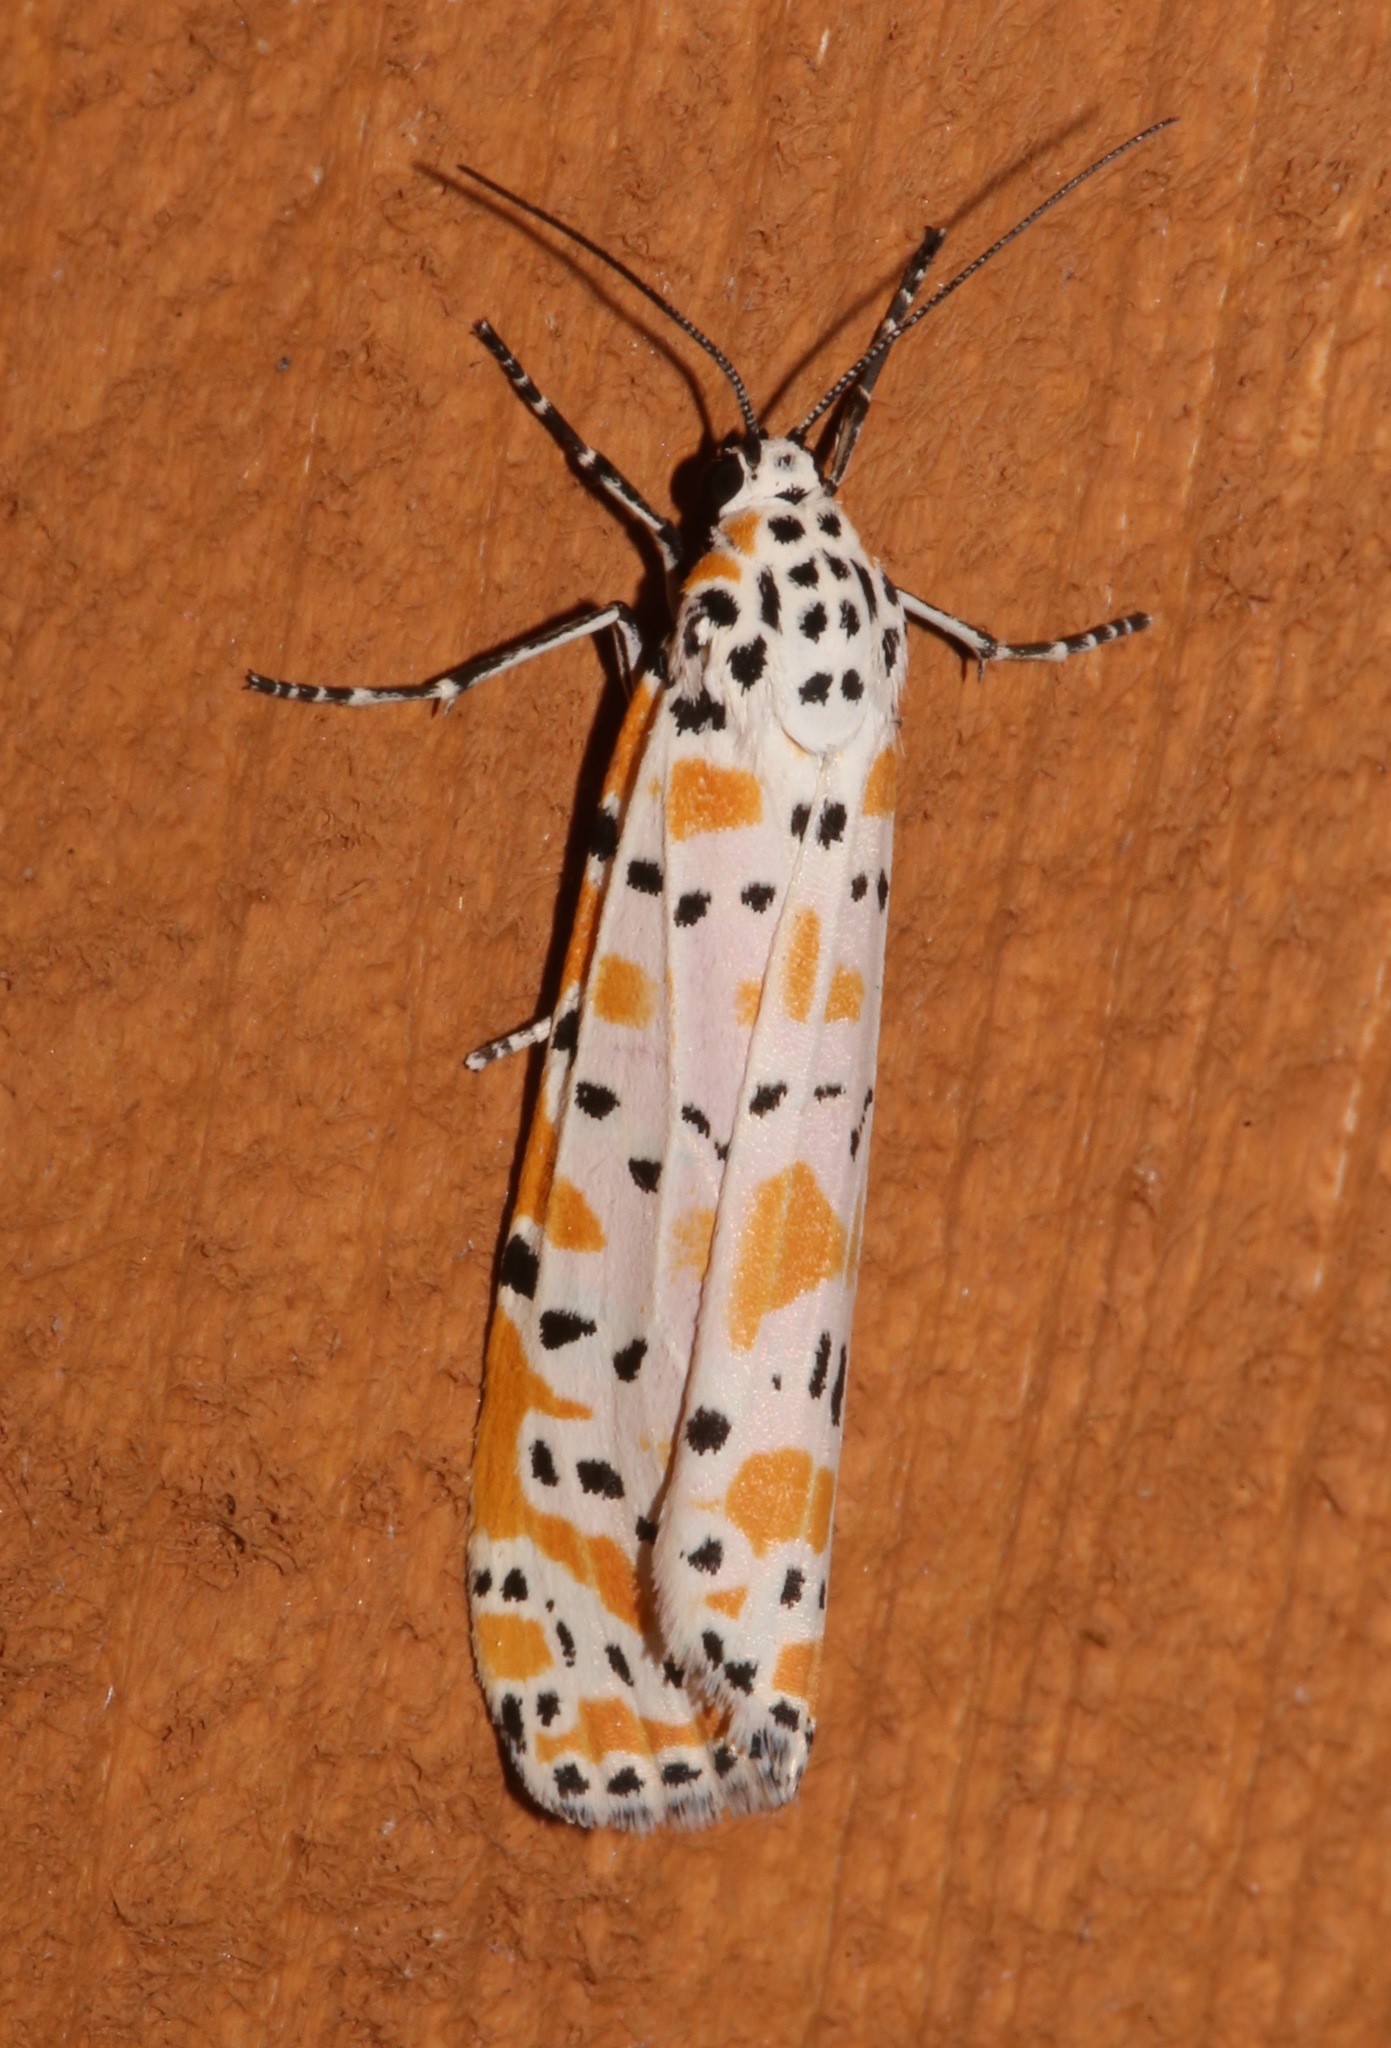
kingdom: Animalia
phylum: Arthropoda
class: Insecta
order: Lepidoptera
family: Erebidae
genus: Utetheisa
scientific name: Utetheisa ornatrix
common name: Beautiful utetheisa
